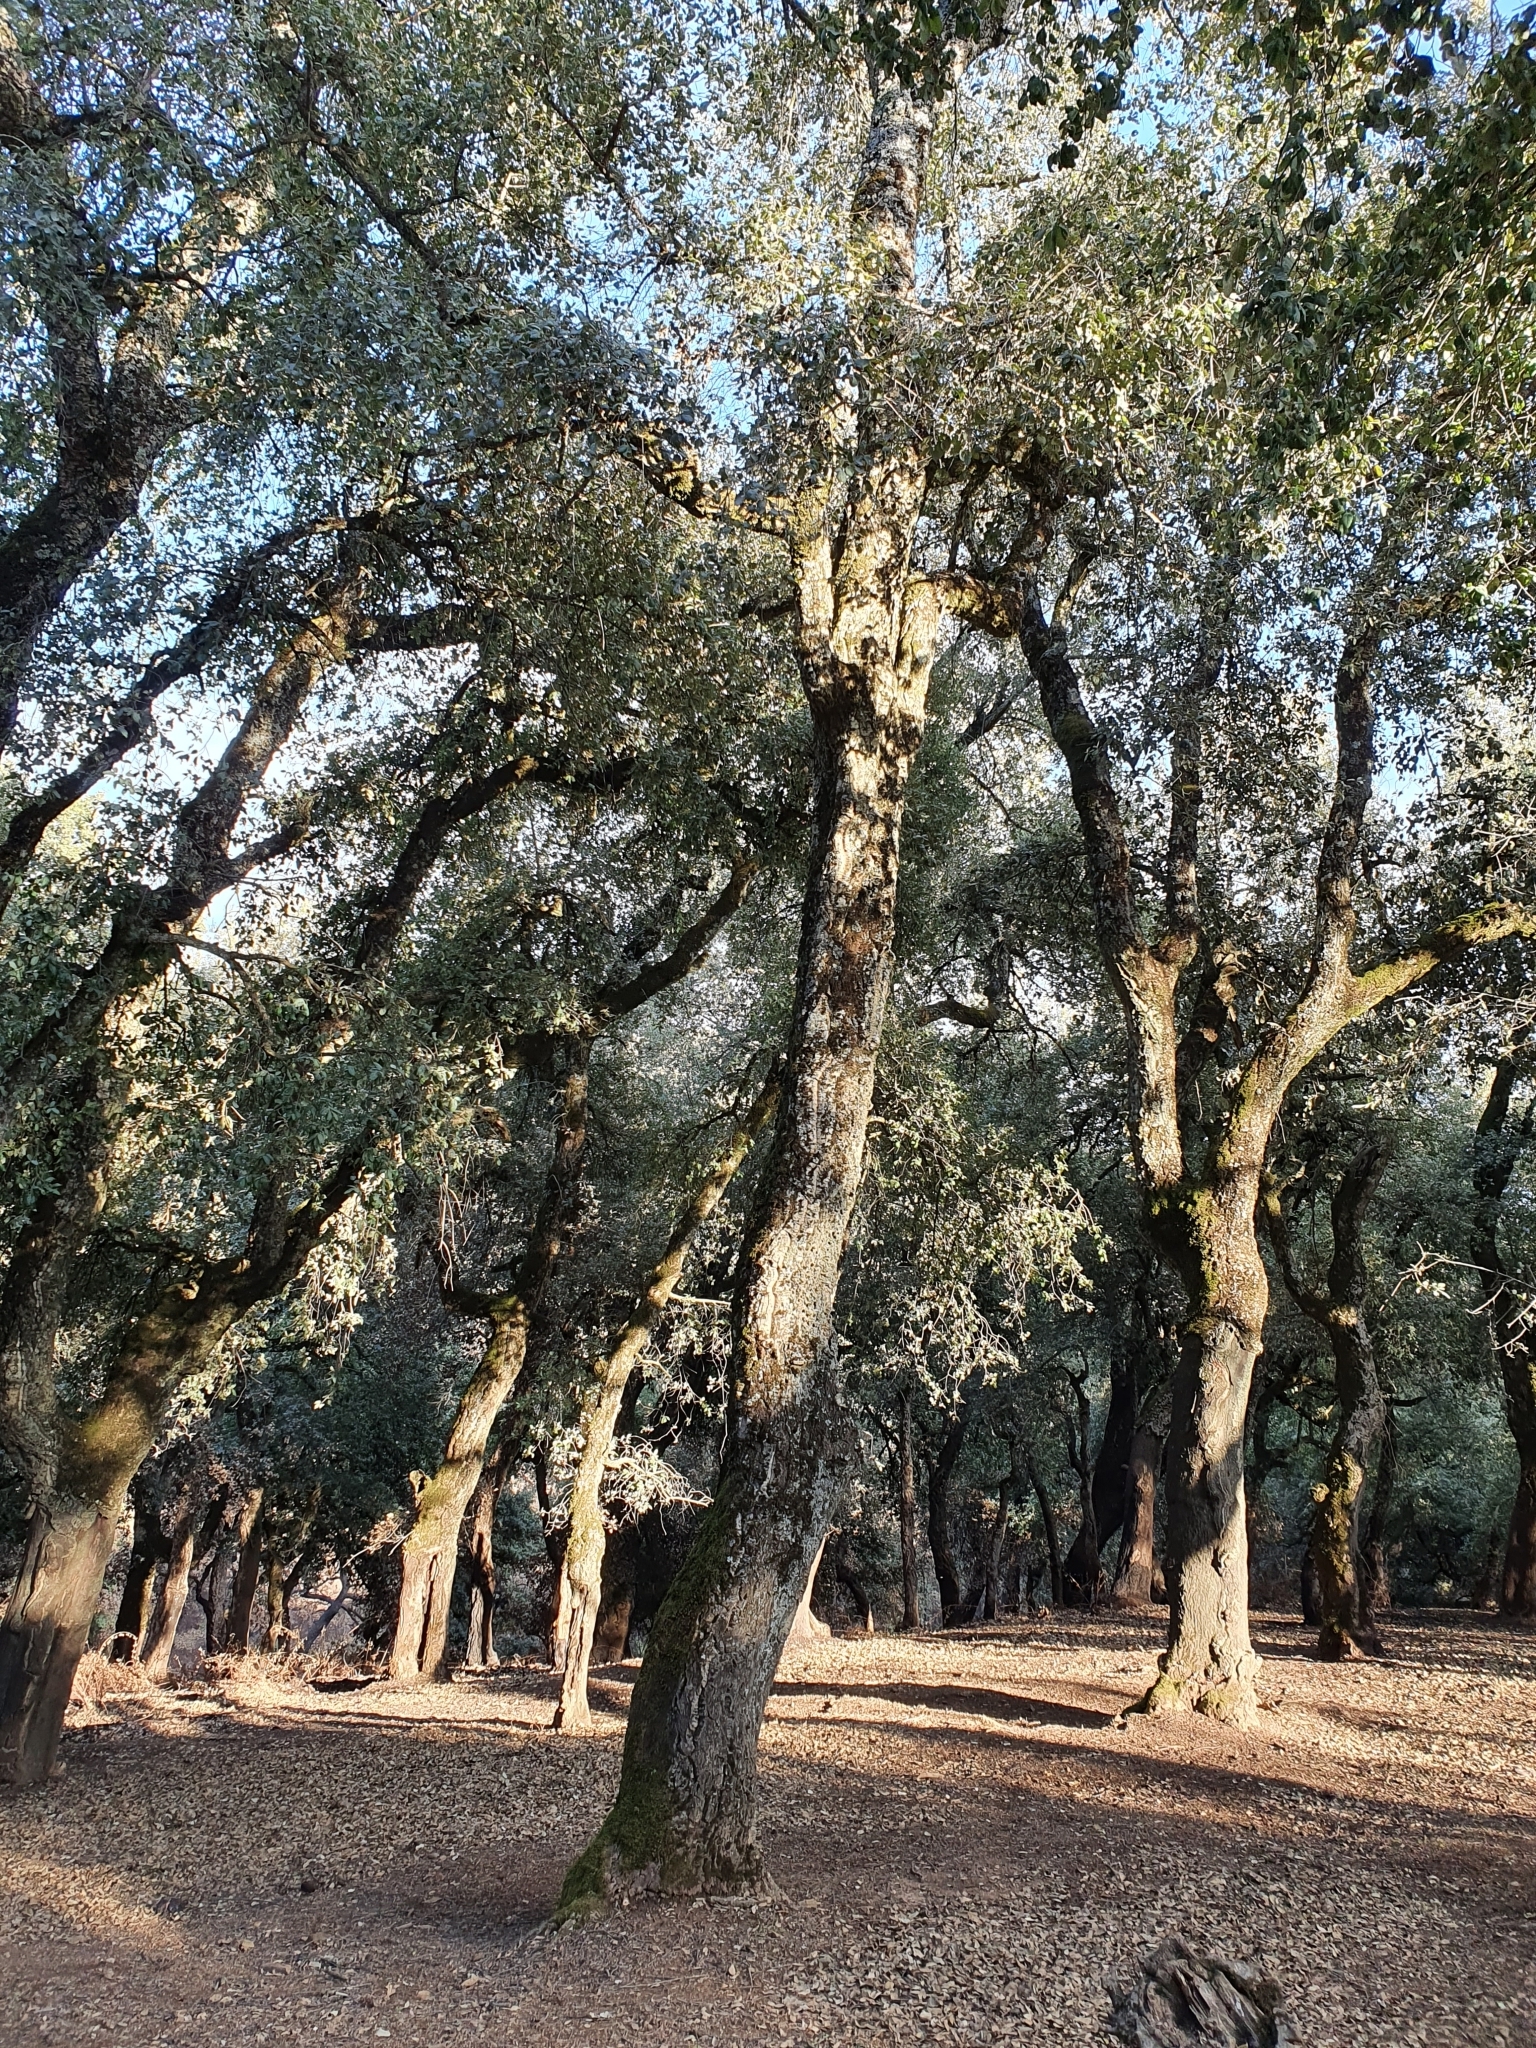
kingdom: Plantae
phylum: Tracheophyta
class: Magnoliopsida
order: Fagales
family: Fagaceae
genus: Quercus
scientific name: Quercus suber
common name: Cork oak
